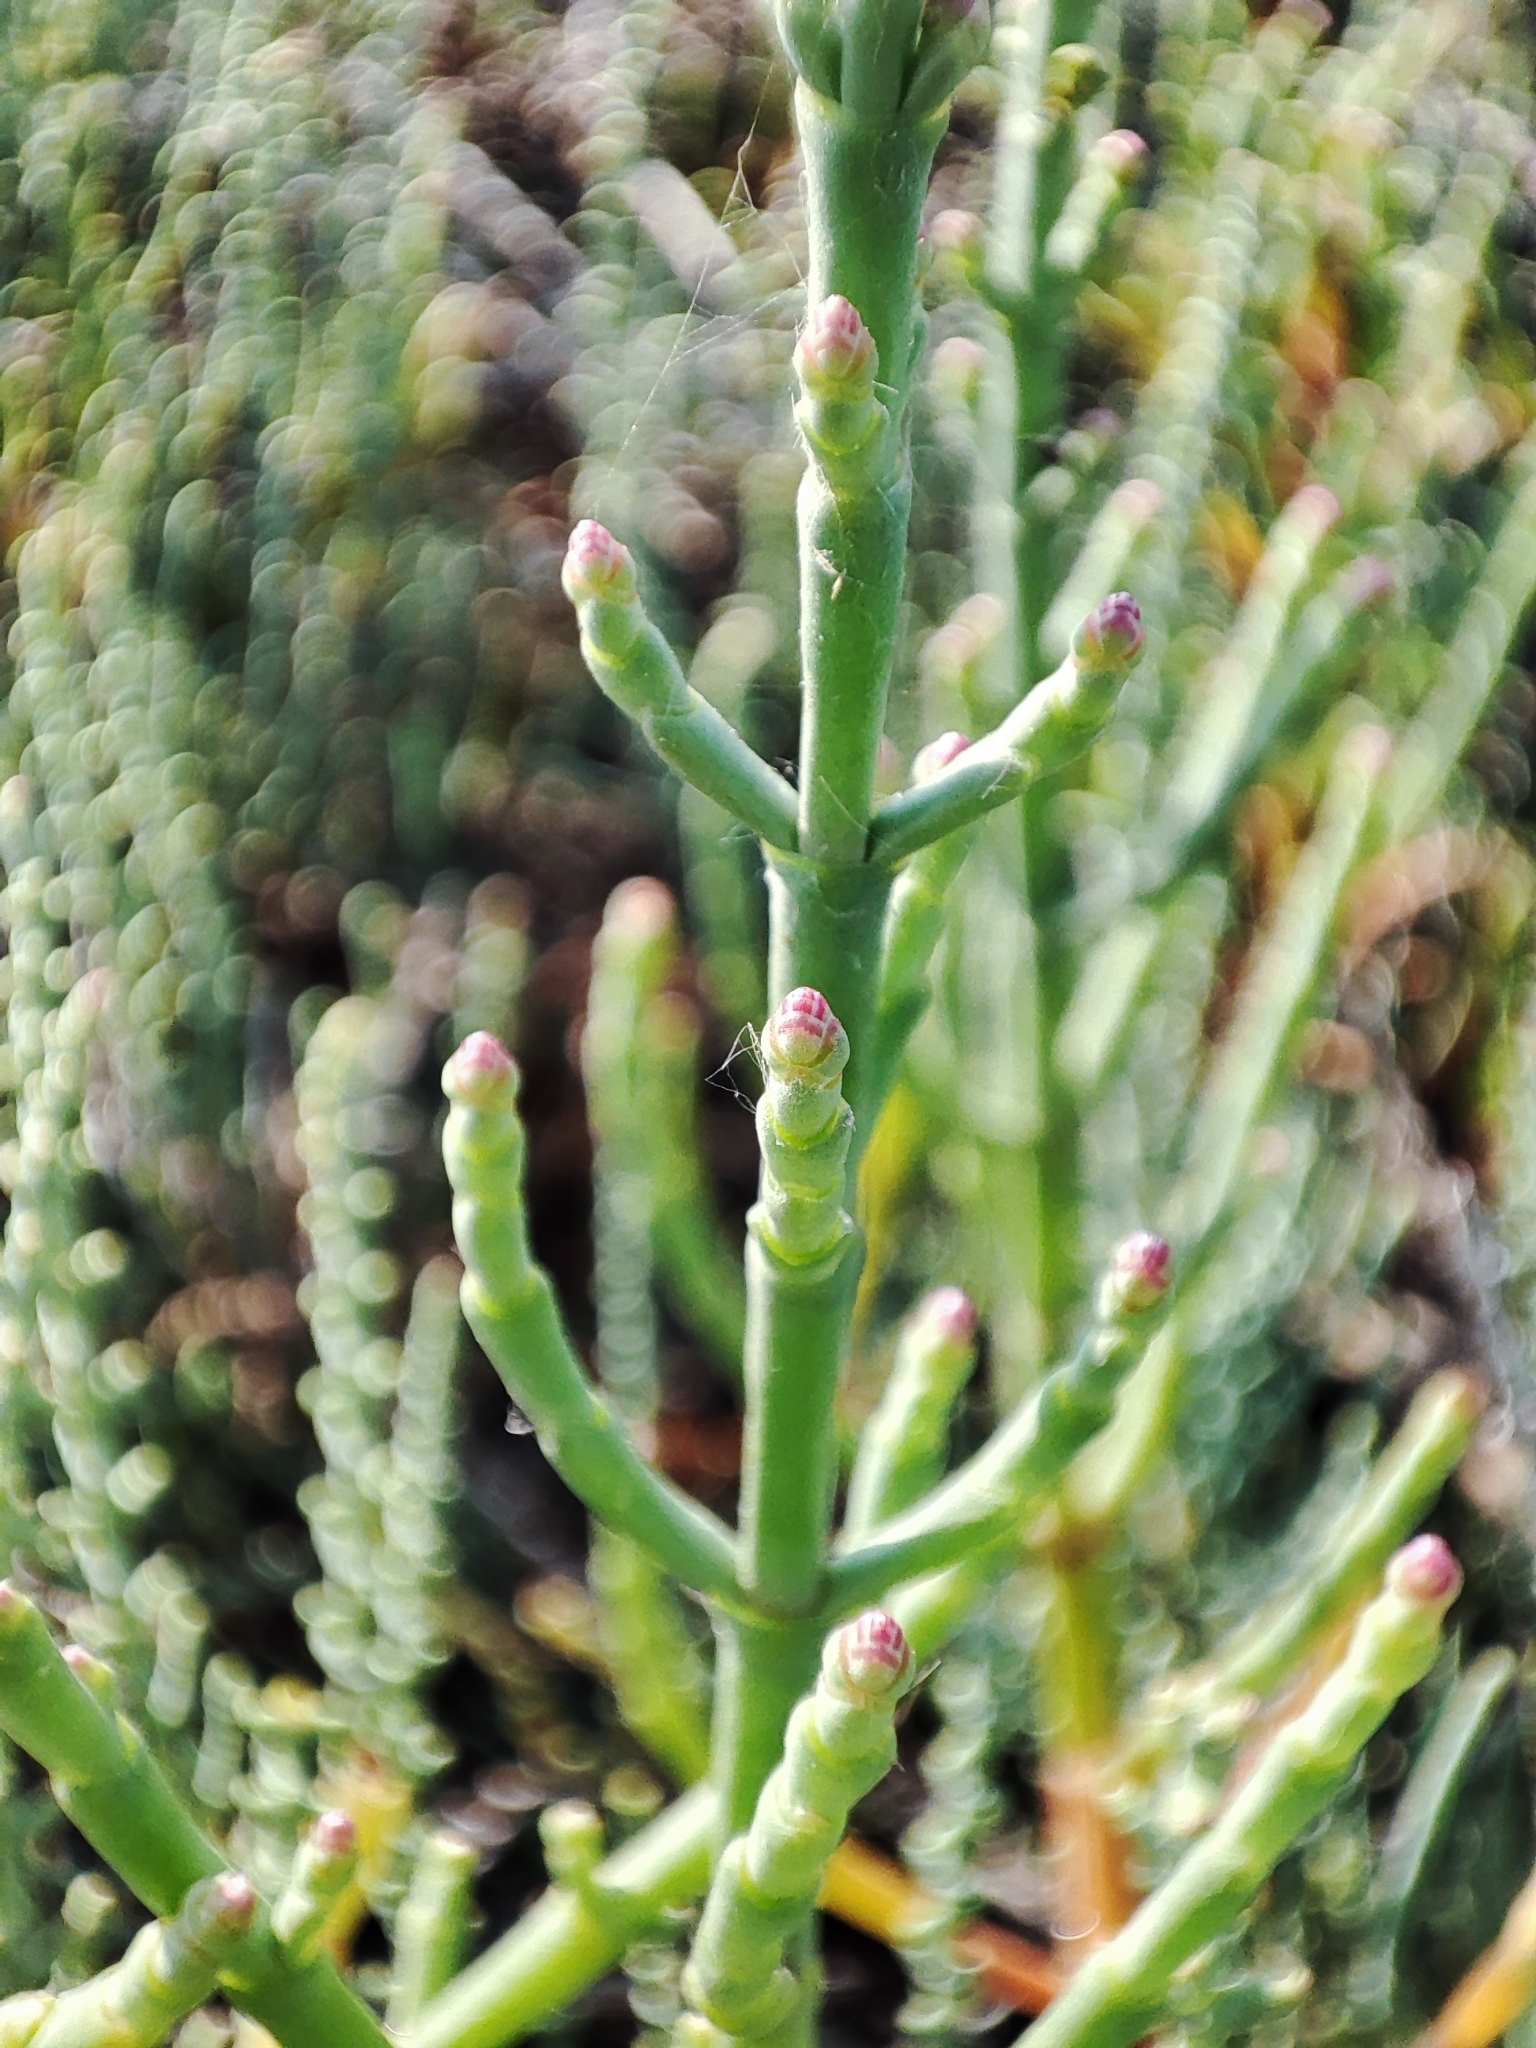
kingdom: Plantae
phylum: Tracheophyta
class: Magnoliopsida
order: Caryophyllales
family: Amaranthaceae
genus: Salicornia
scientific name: Salicornia perennans
